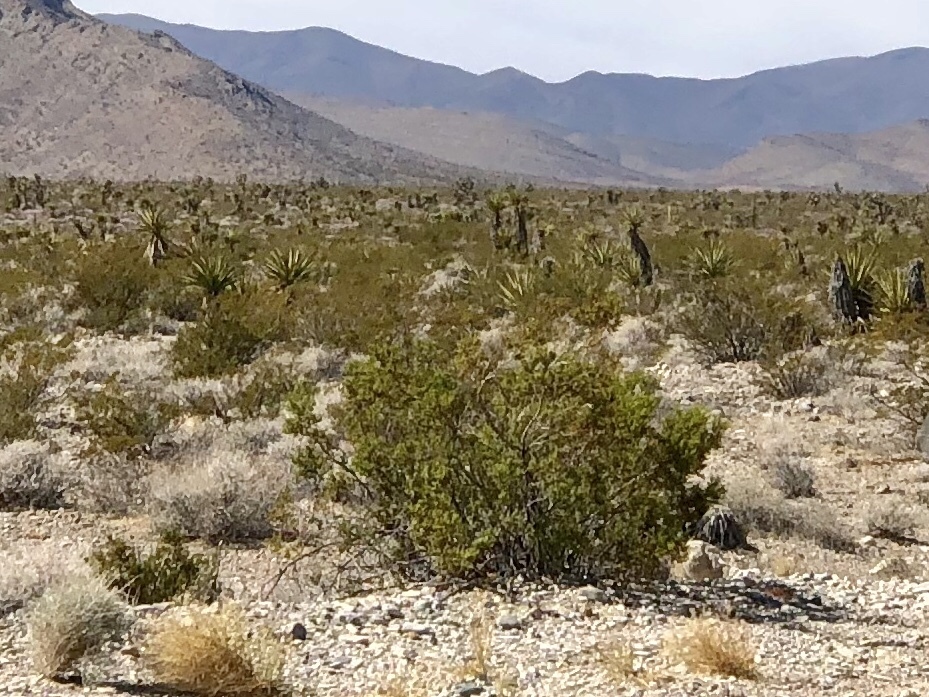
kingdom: Plantae
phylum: Tracheophyta
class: Magnoliopsida
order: Zygophyllales
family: Zygophyllaceae
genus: Larrea
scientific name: Larrea tridentata
